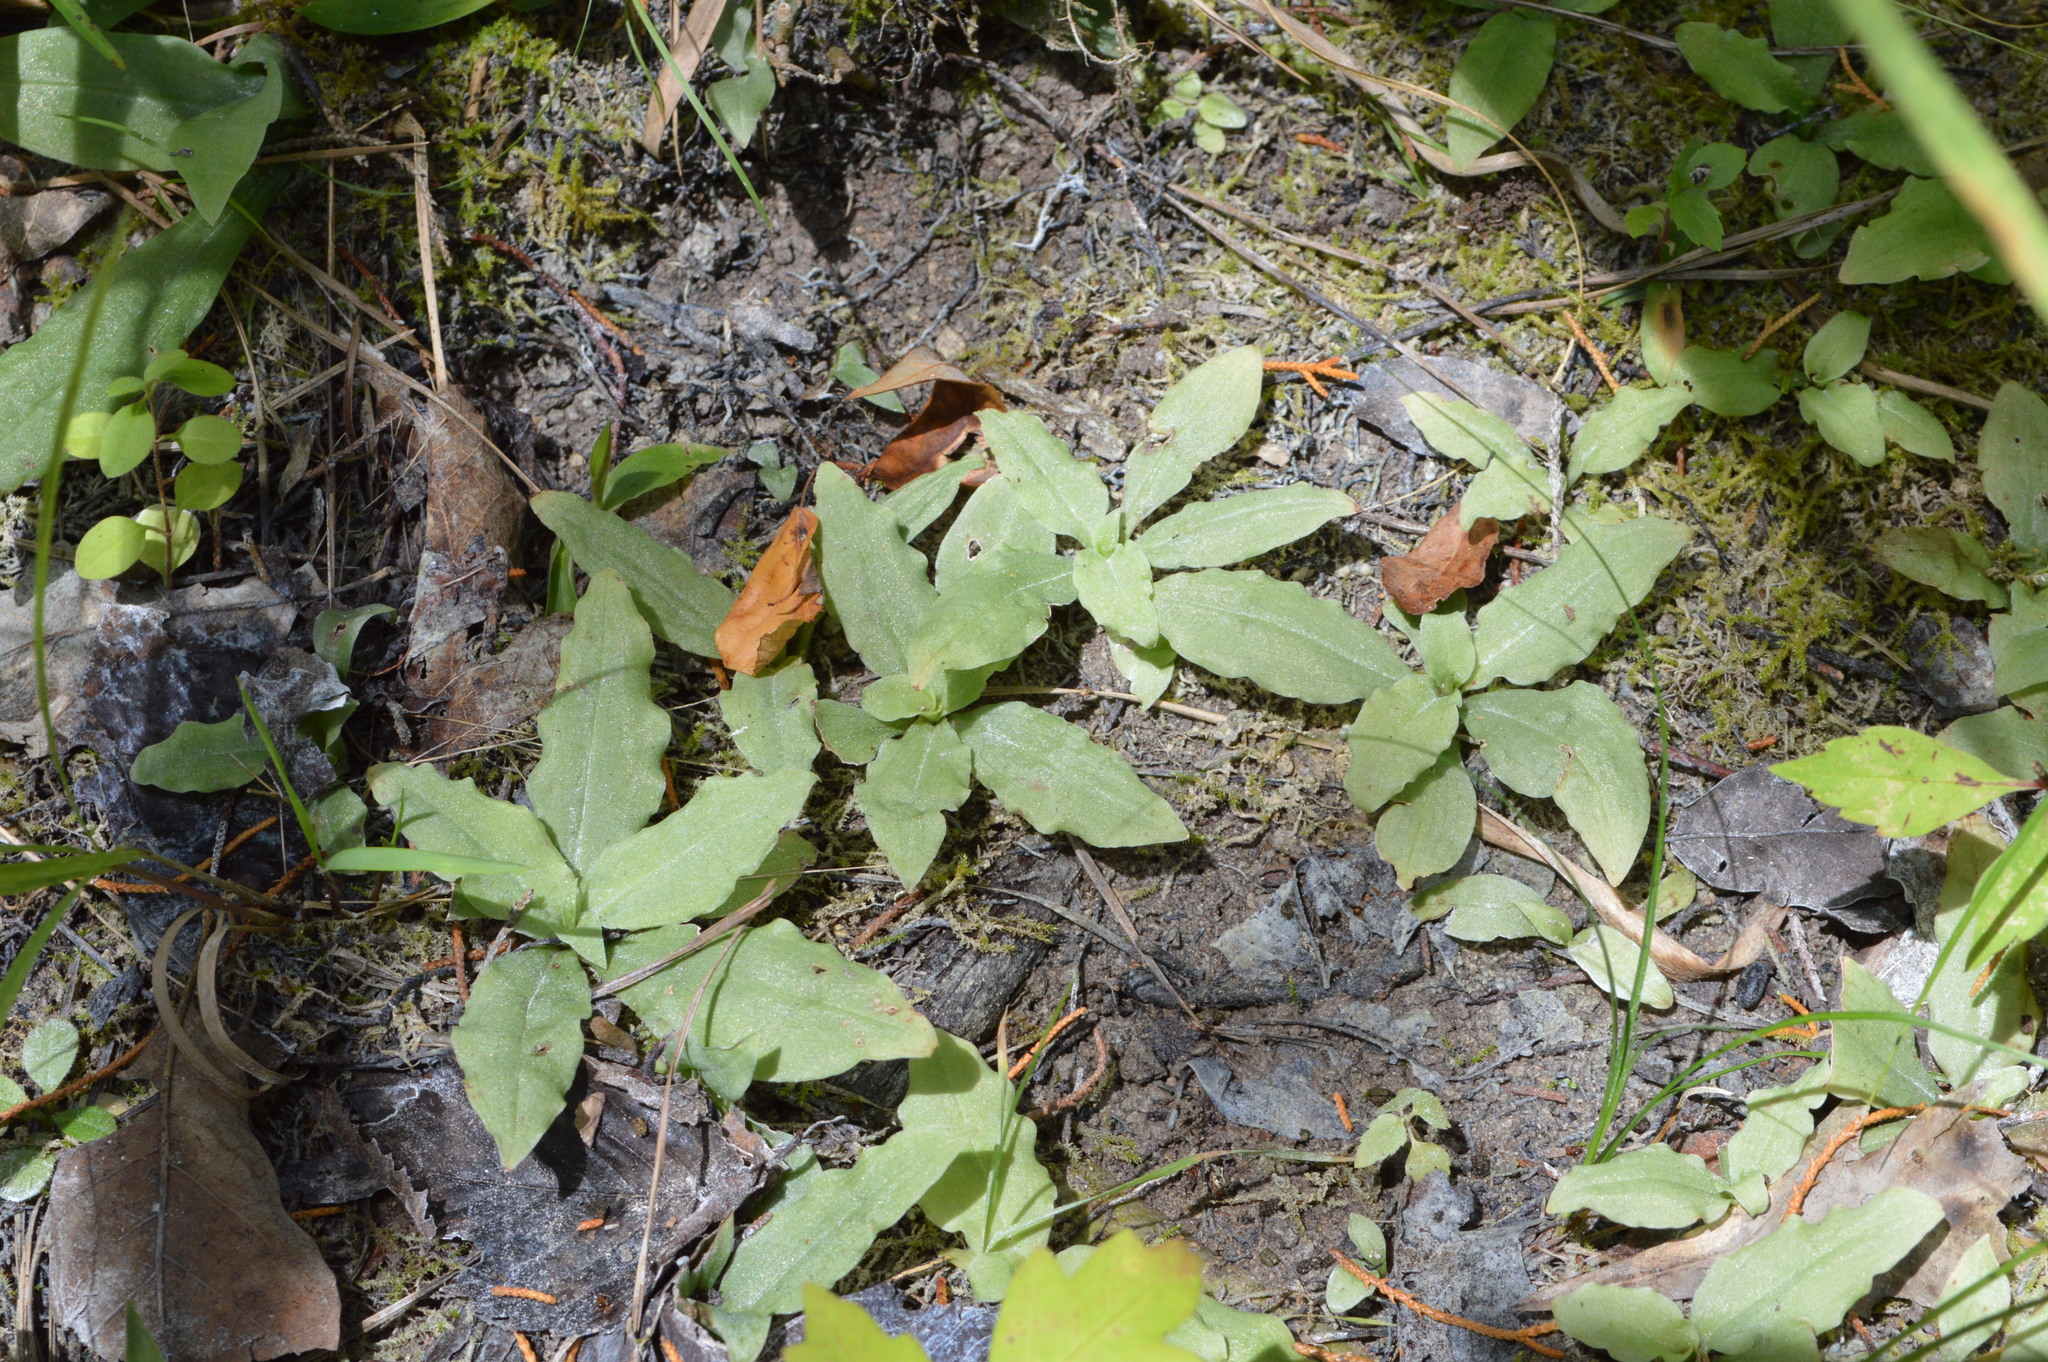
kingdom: Plantae
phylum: Tracheophyta
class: Liliopsida
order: Asparagales
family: Orchidaceae
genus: Ponthieva
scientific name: Ponthieva racemosa
